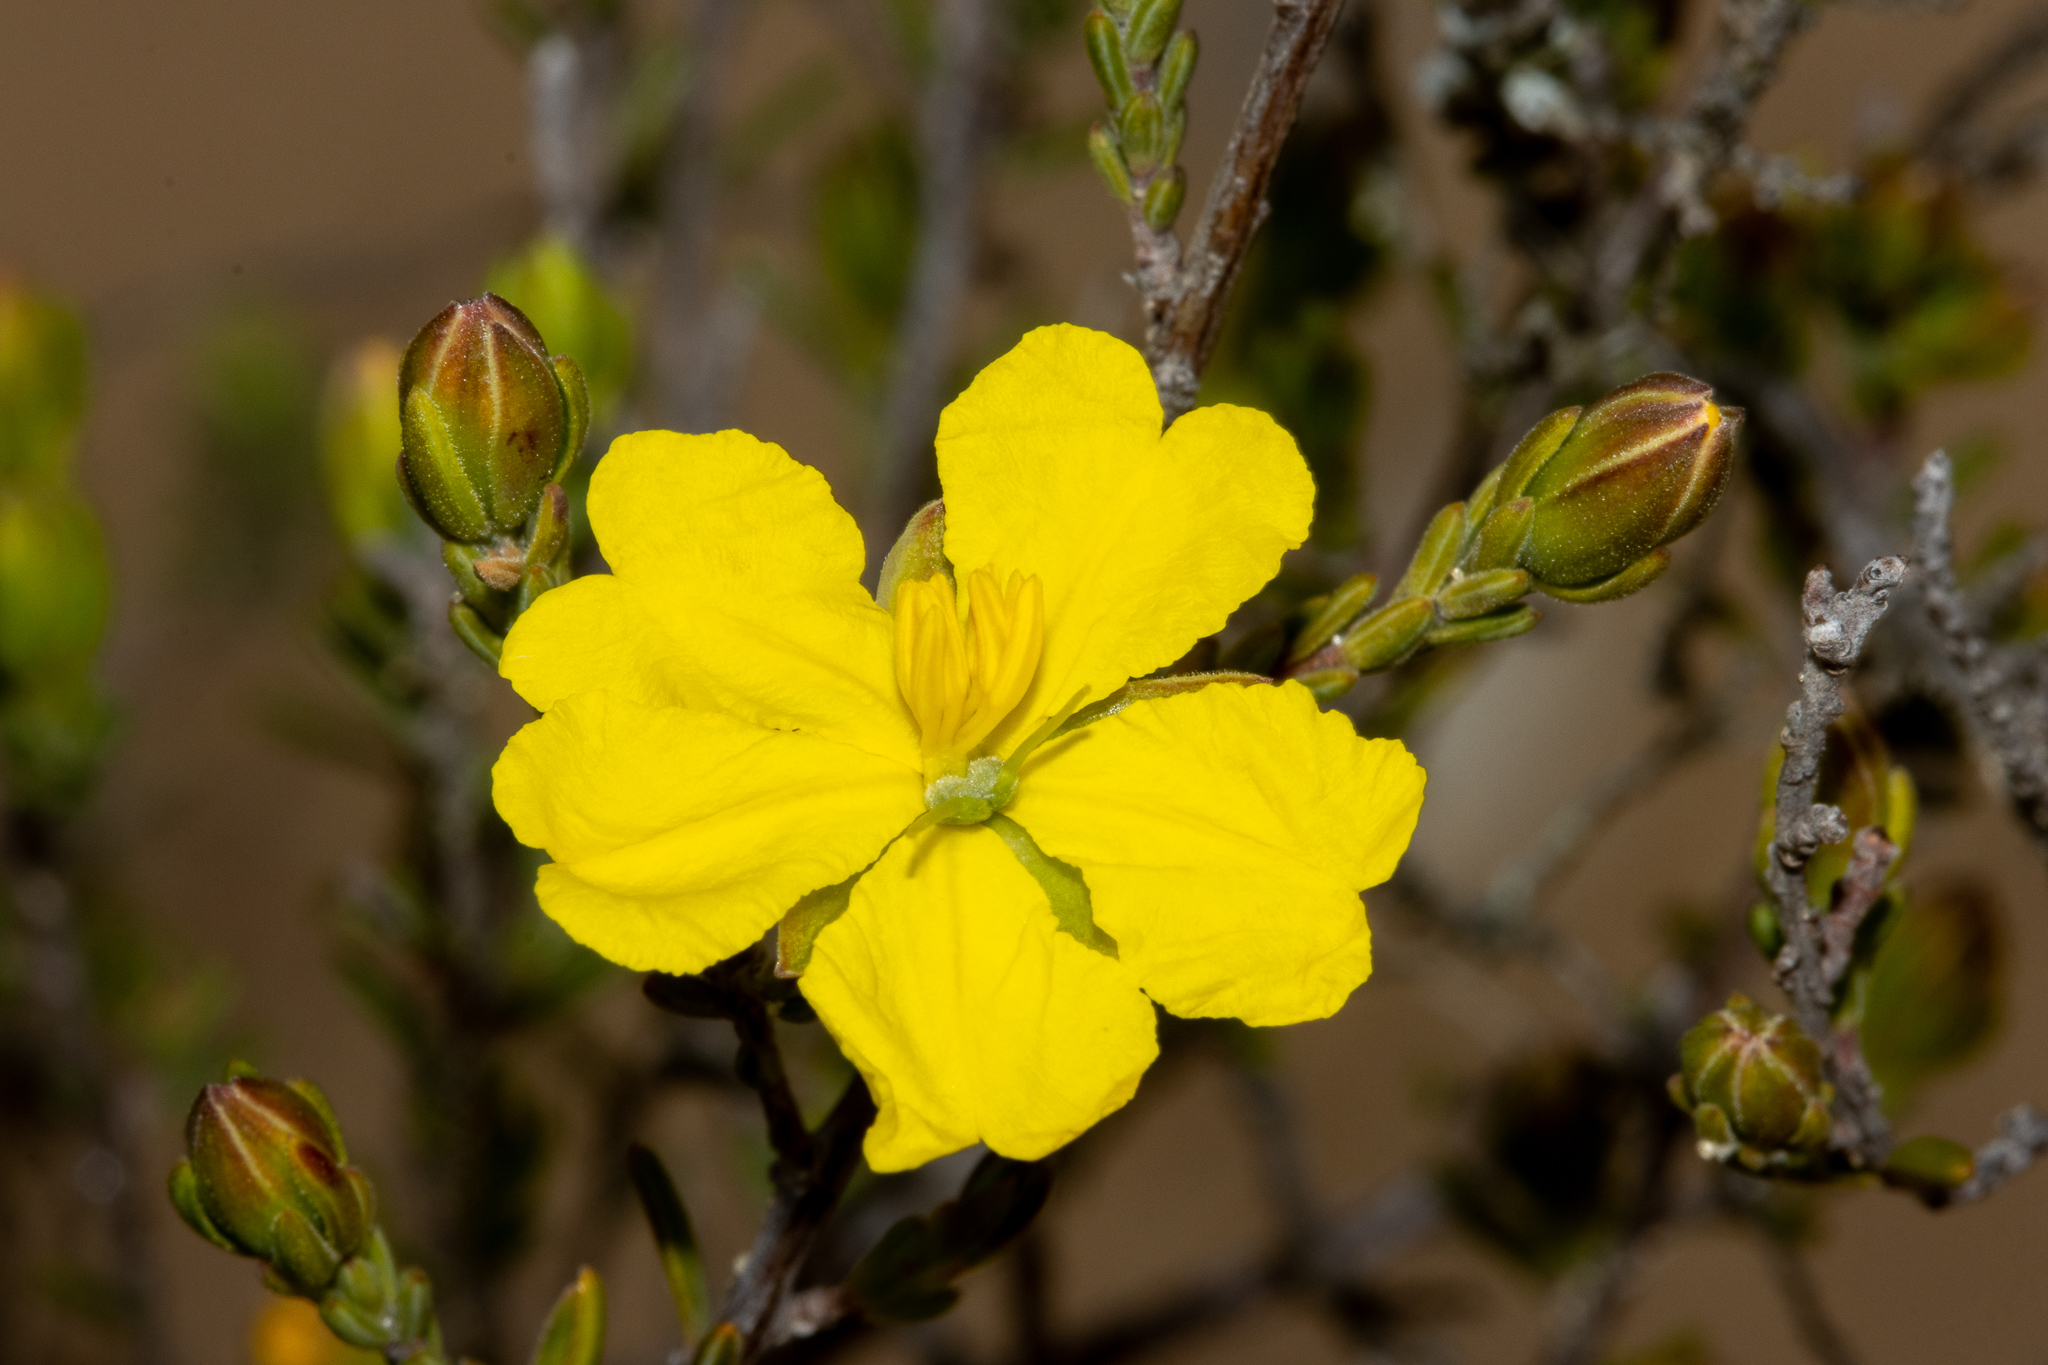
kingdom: Plantae
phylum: Tracheophyta
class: Magnoliopsida
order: Dilleniales
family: Dilleniaceae
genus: Hibbertia
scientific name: Hibbertia devitata
